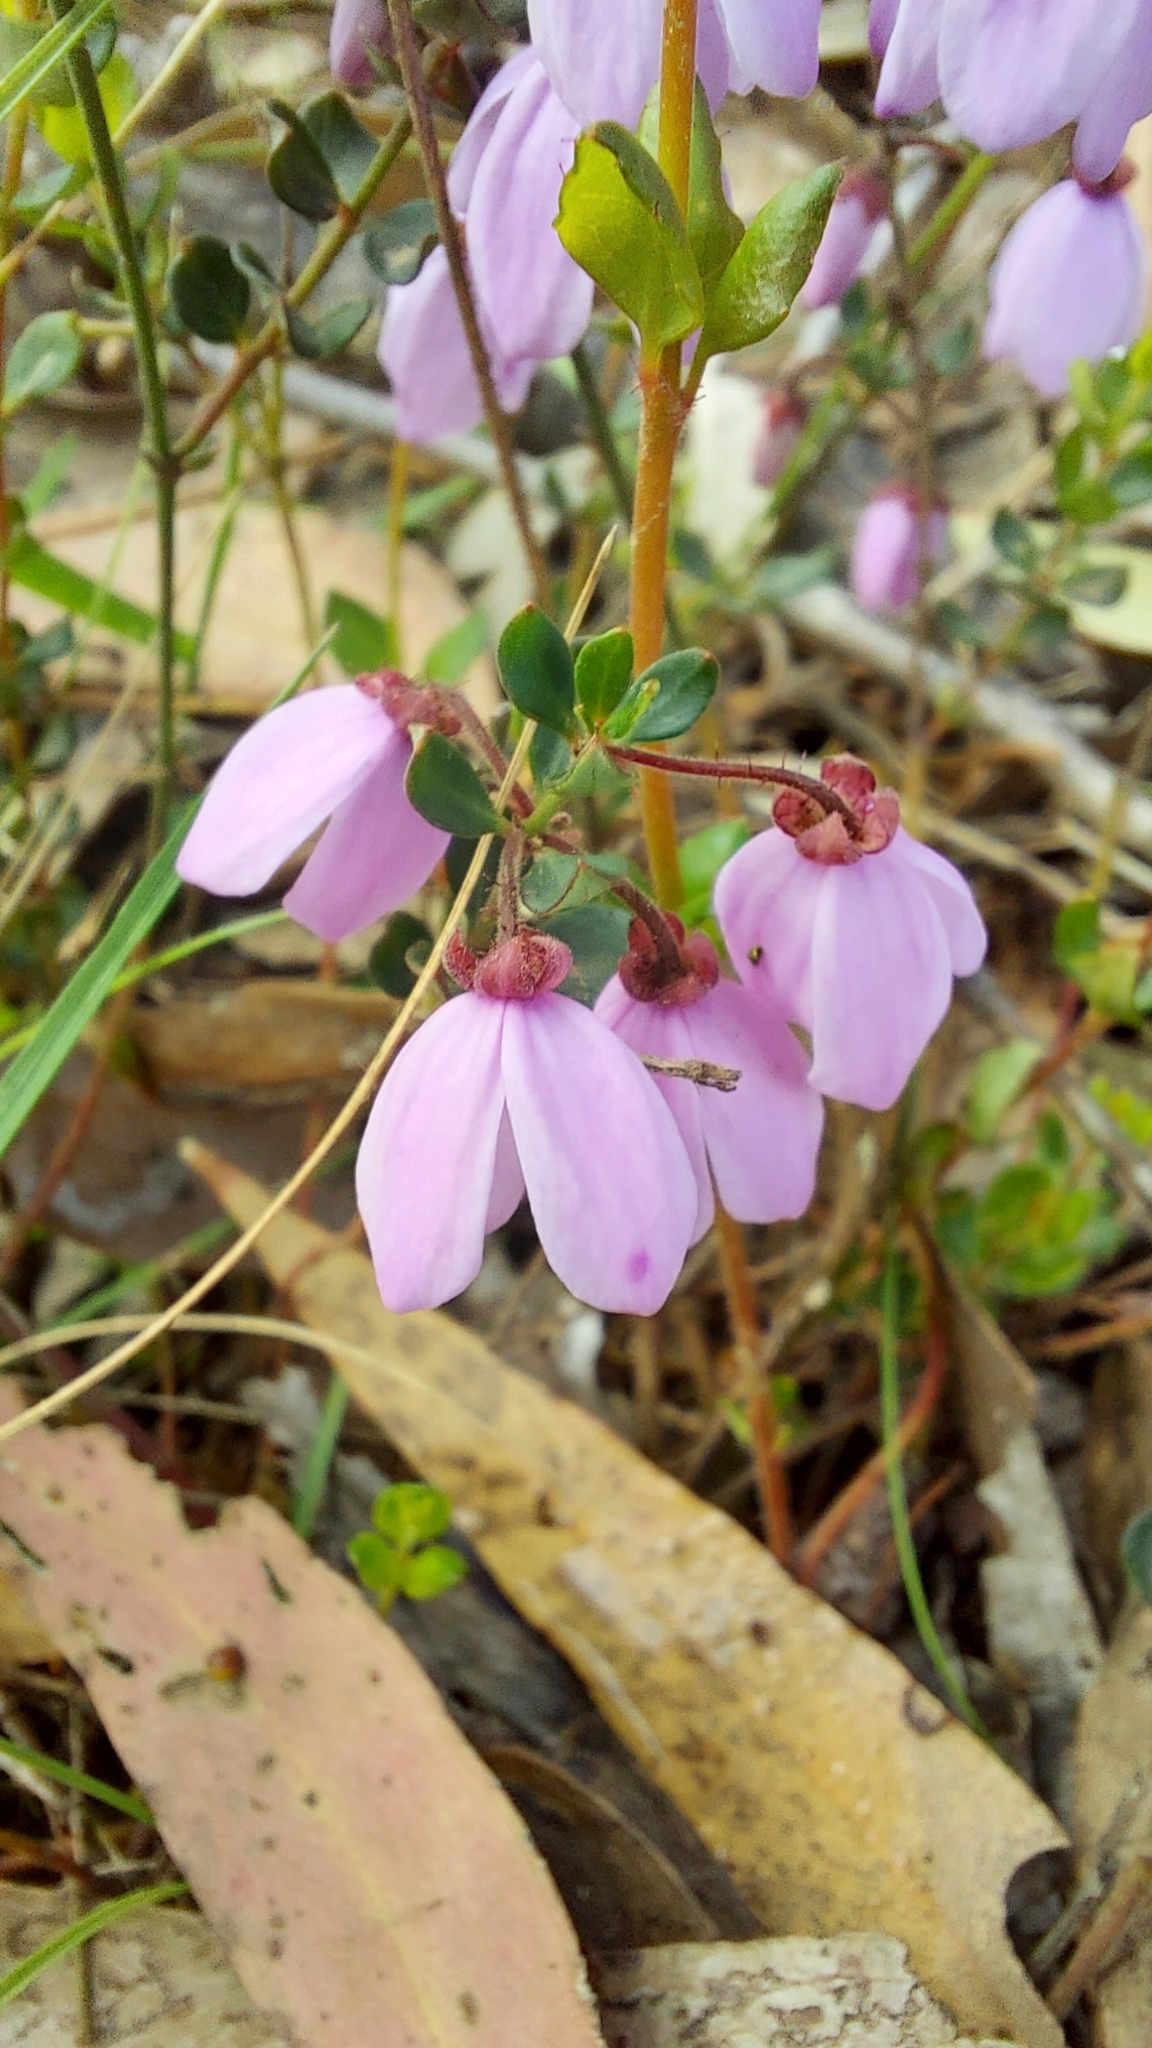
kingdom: Plantae
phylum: Tracheophyta
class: Magnoliopsida
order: Oxalidales
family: Elaeocarpaceae
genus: Tetratheca
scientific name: Tetratheca ciliata
